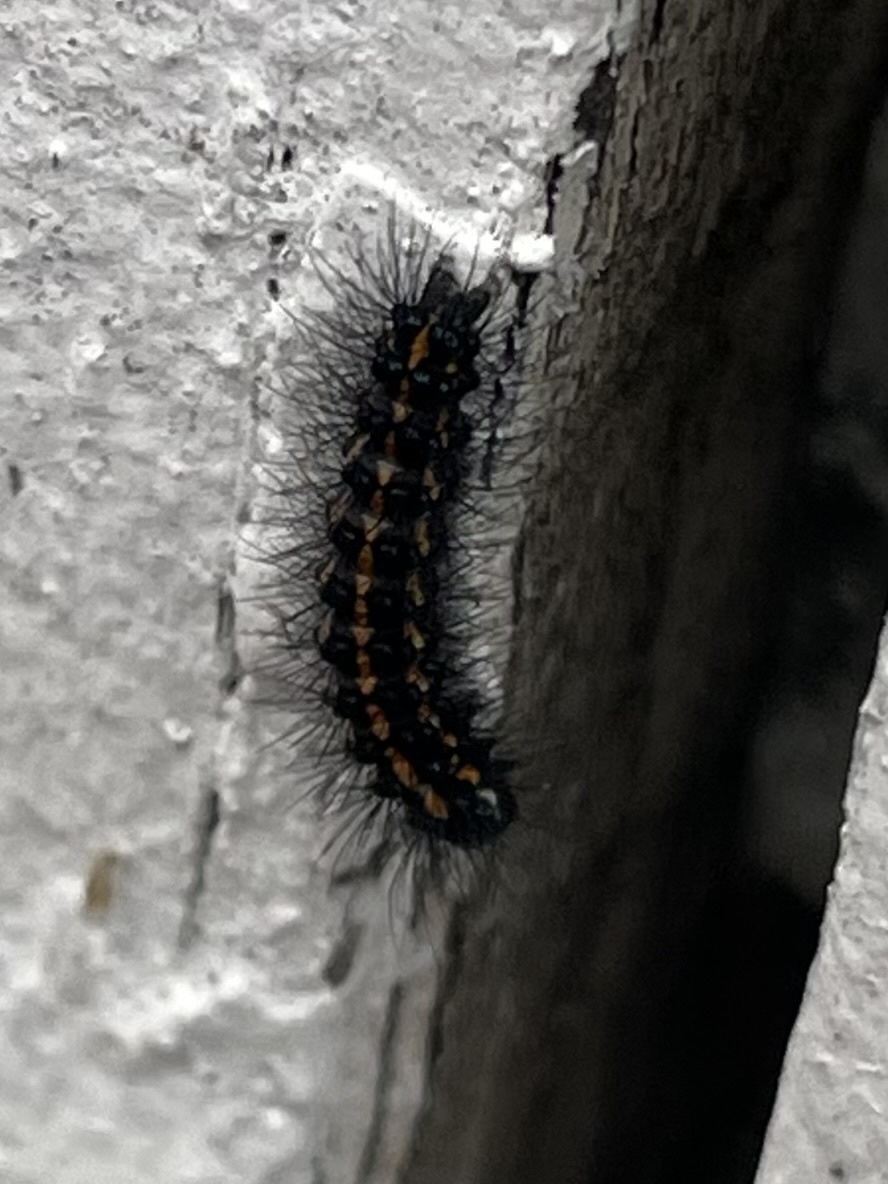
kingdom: Animalia
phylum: Arthropoda
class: Insecta
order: Lepidoptera
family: Erebidae
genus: Nyctemera
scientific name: Nyctemera annulatum
